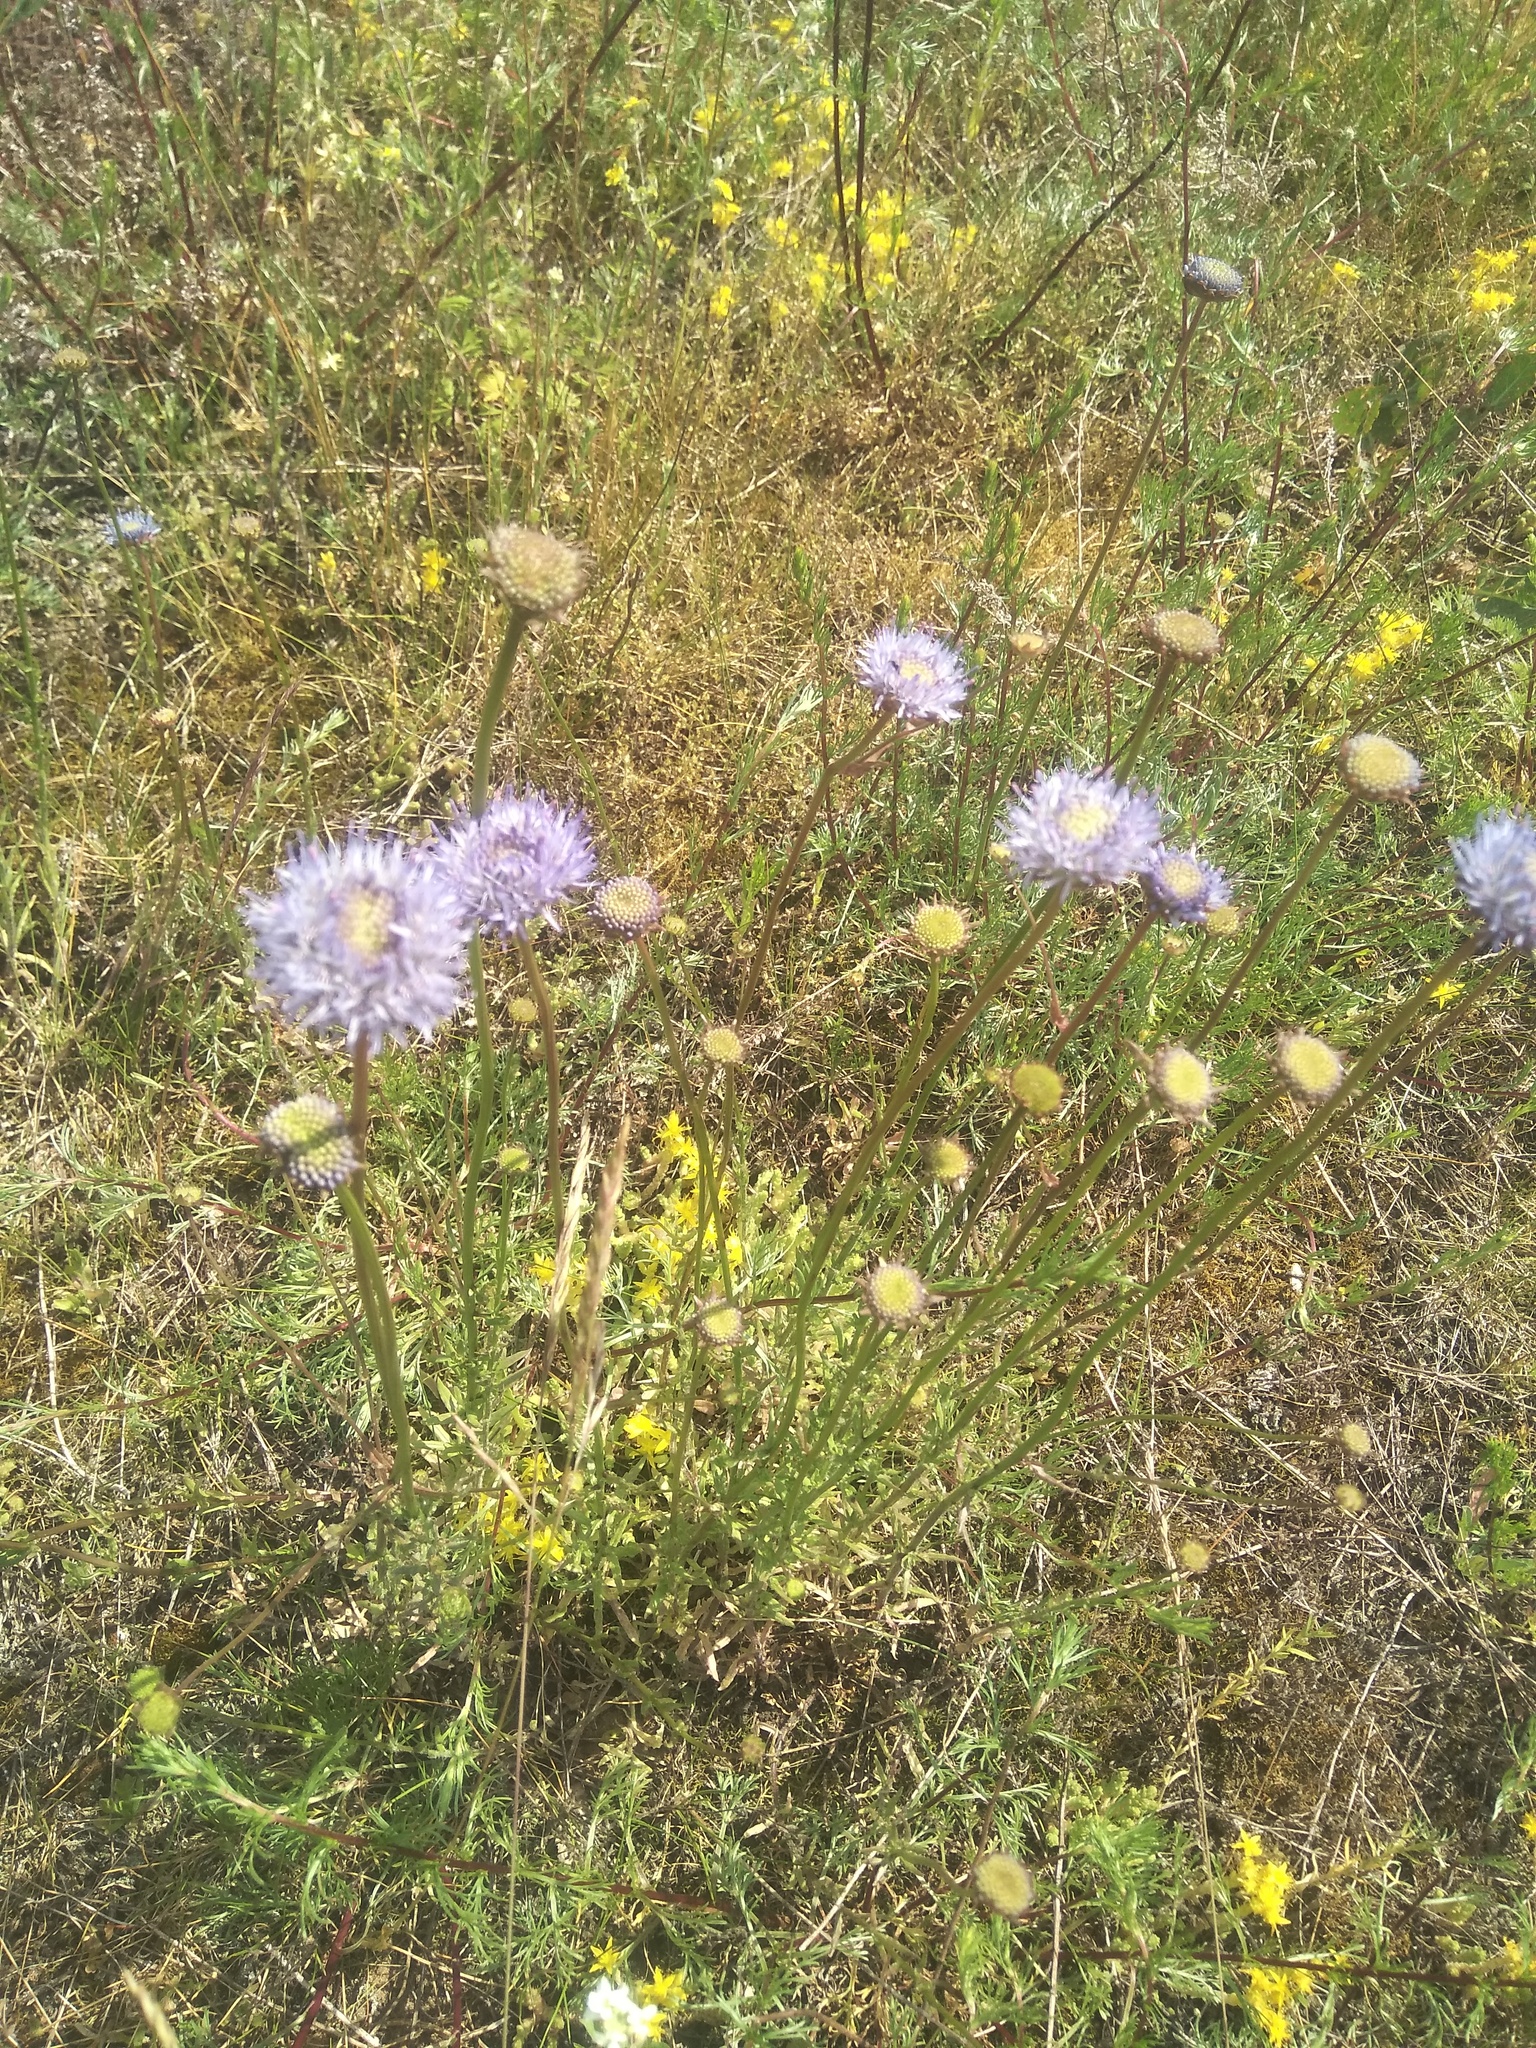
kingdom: Plantae
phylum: Tracheophyta
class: Magnoliopsida
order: Asterales
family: Campanulaceae
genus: Jasione
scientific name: Jasione montana
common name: Sheep's-bit
